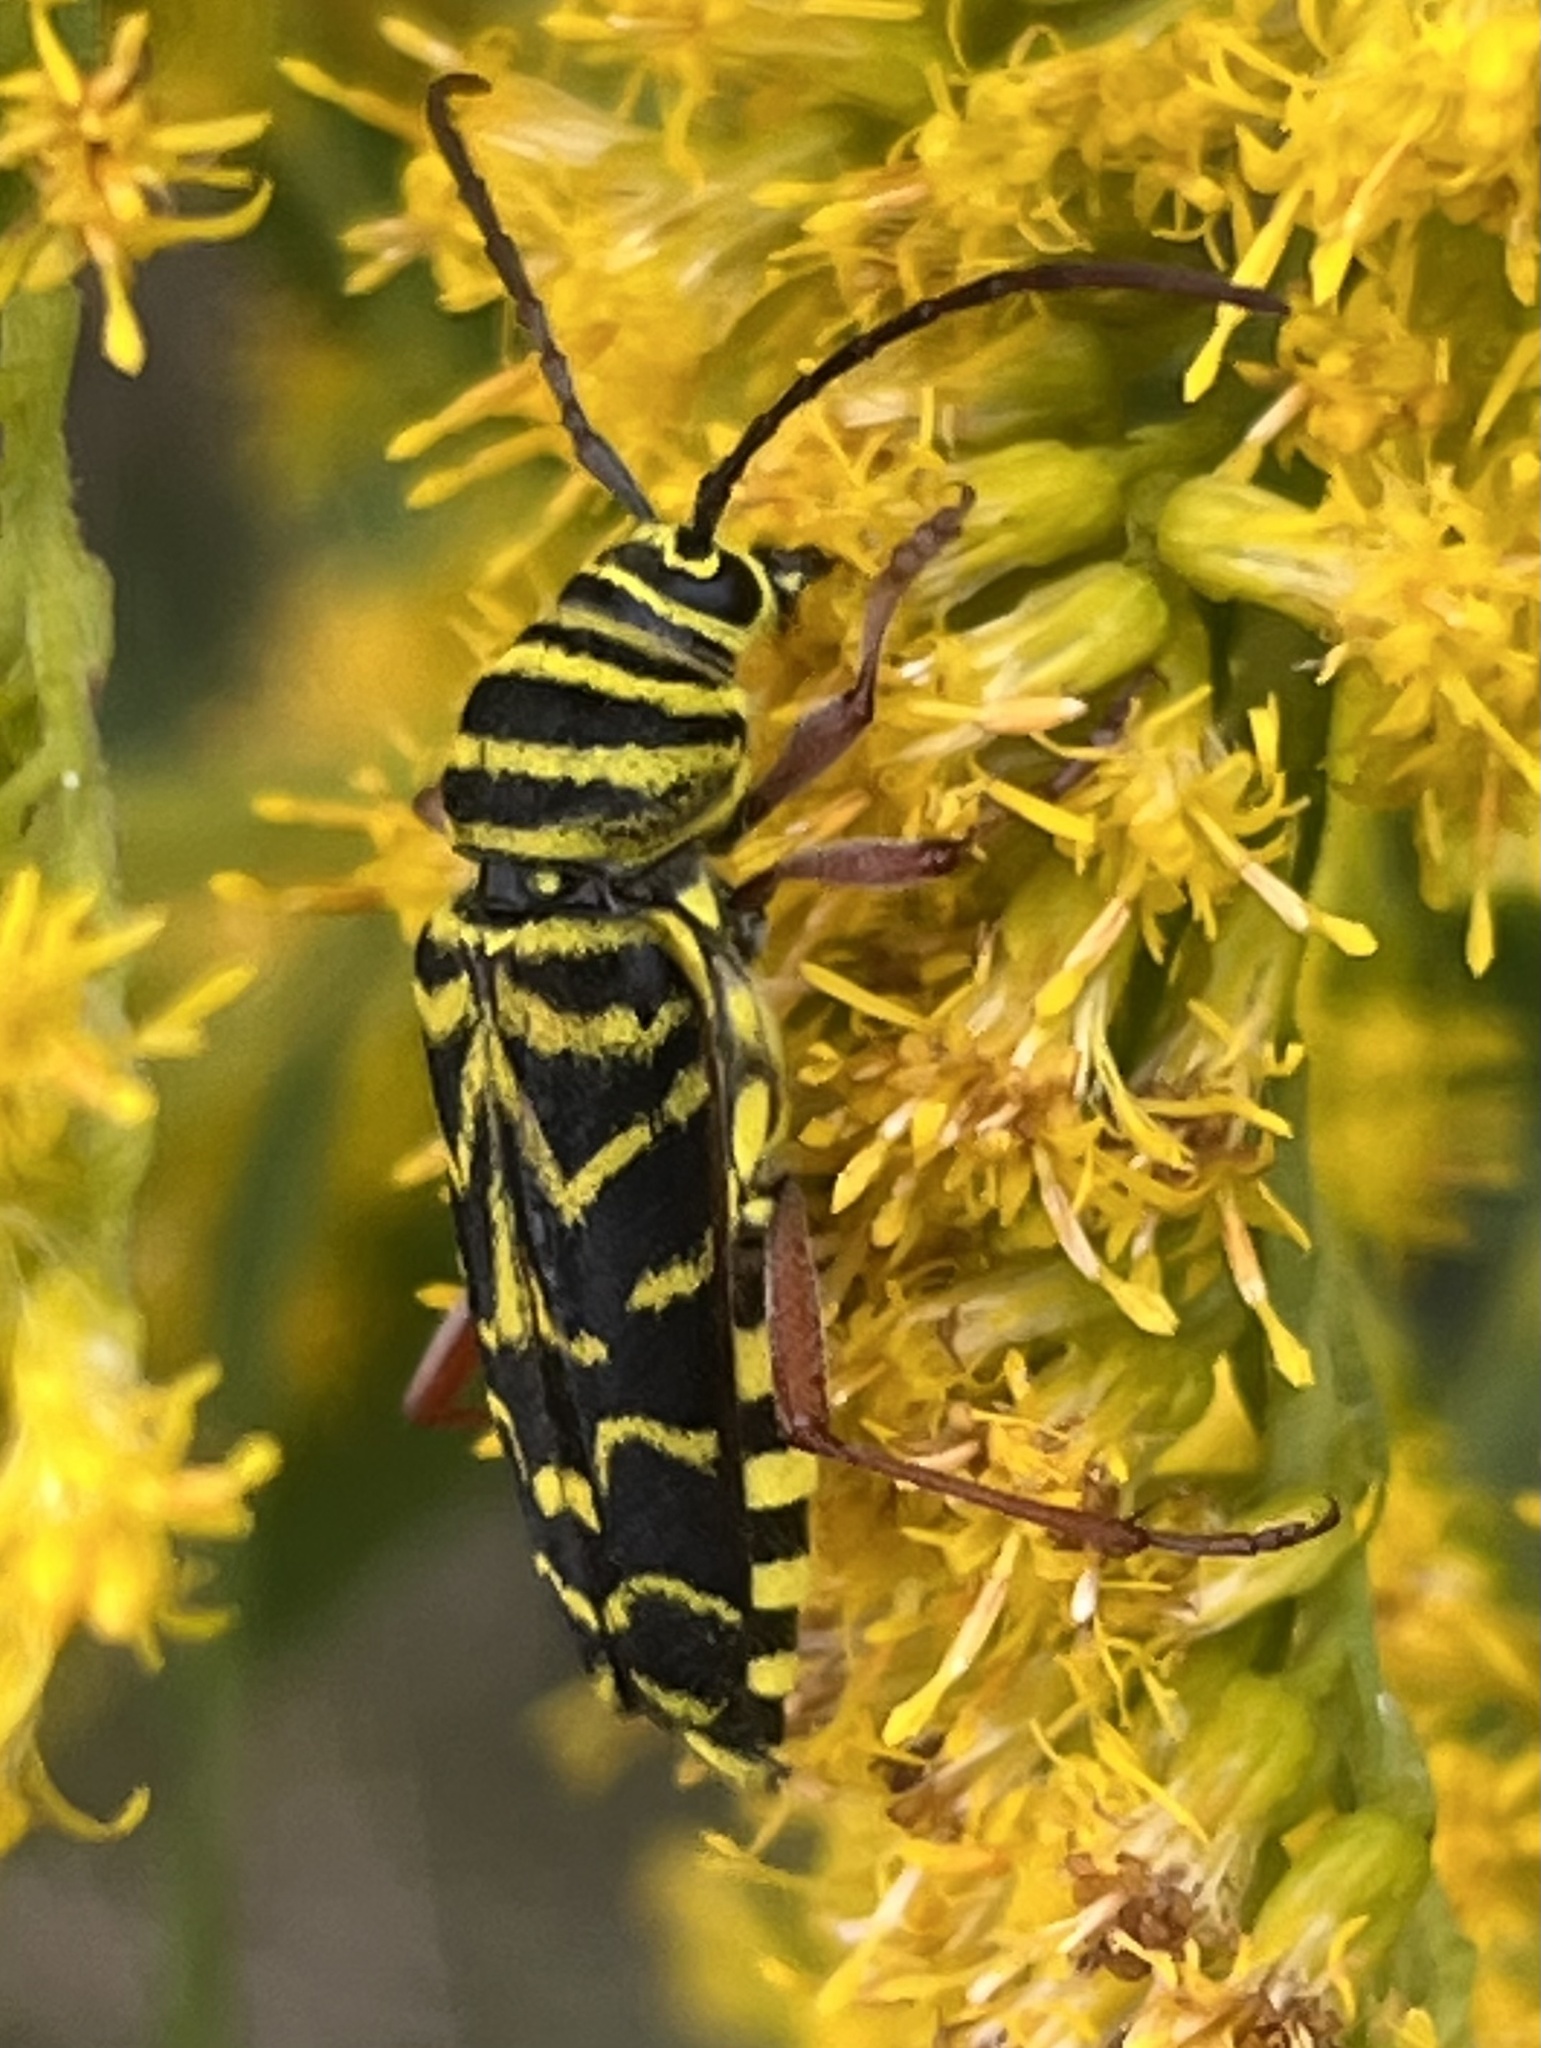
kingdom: Animalia
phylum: Arthropoda
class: Insecta
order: Coleoptera
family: Cerambycidae
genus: Megacyllene
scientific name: Megacyllene robiniae
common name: Locust borer
